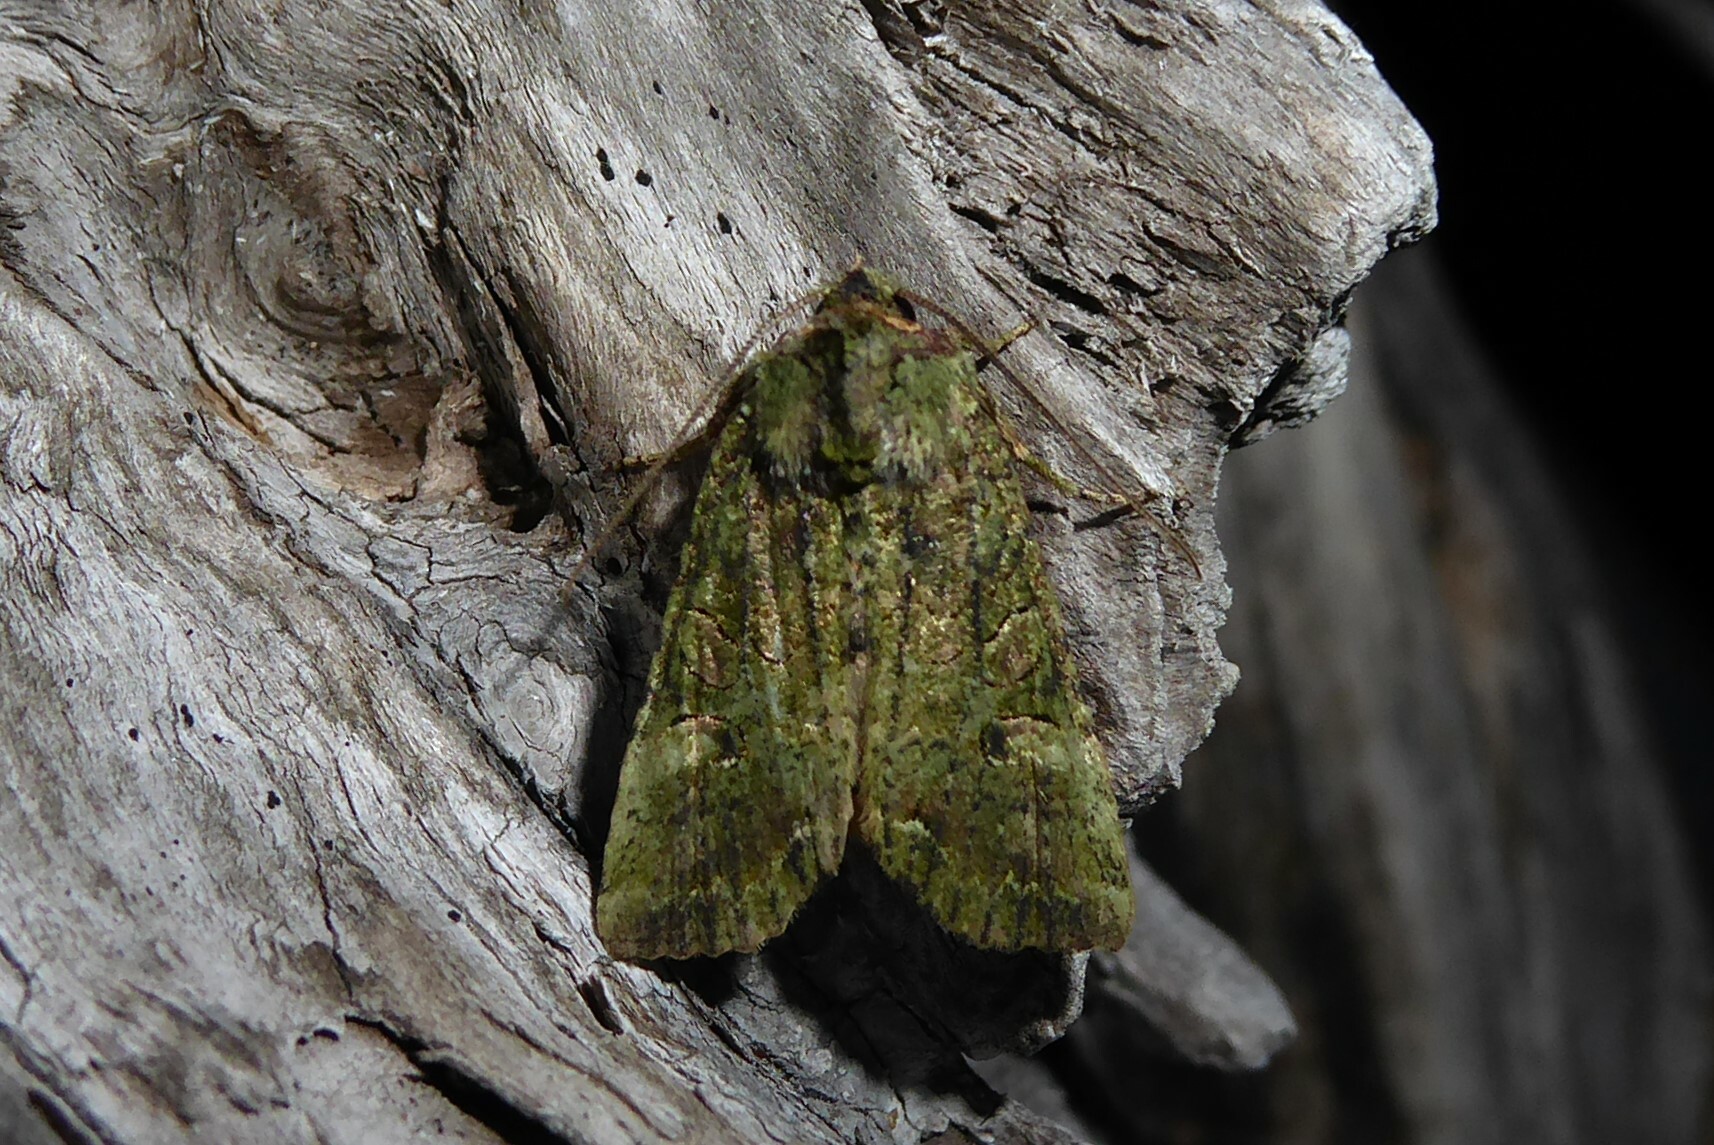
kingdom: Animalia
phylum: Arthropoda
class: Insecta
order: Lepidoptera
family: Noctuidae
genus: Meterana
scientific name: Meterana levis
